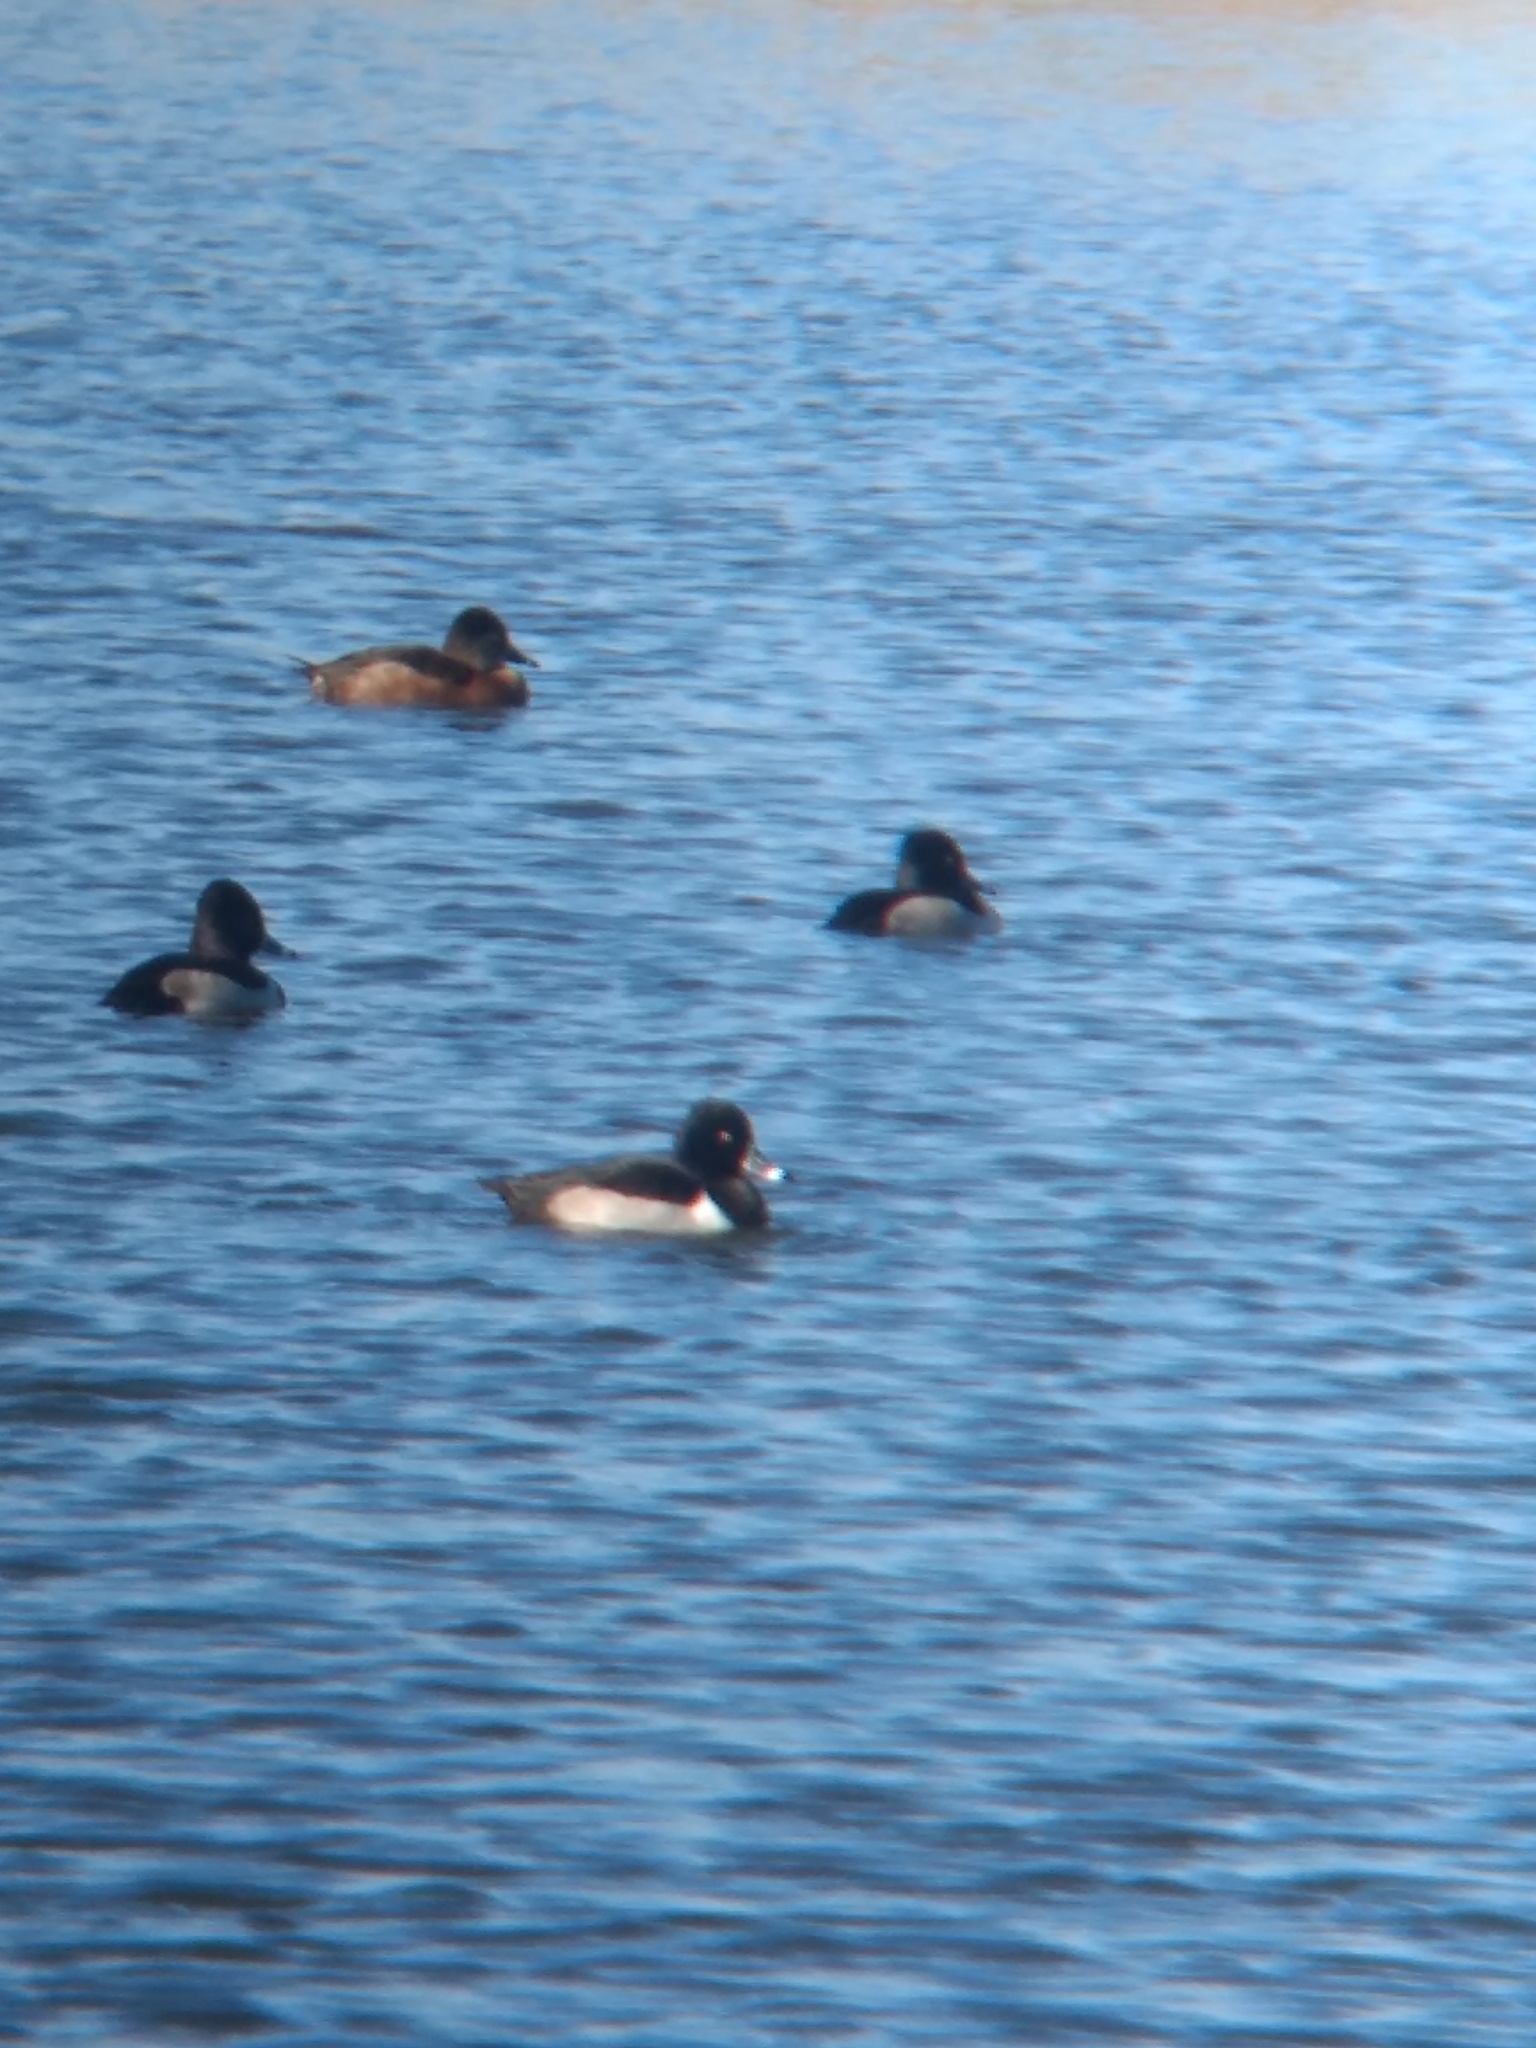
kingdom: Animalia
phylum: Chordata
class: Aves
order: Anseriformes
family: Anatidae
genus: Aythya
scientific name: Aythya collaris
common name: Ring-necked duck
